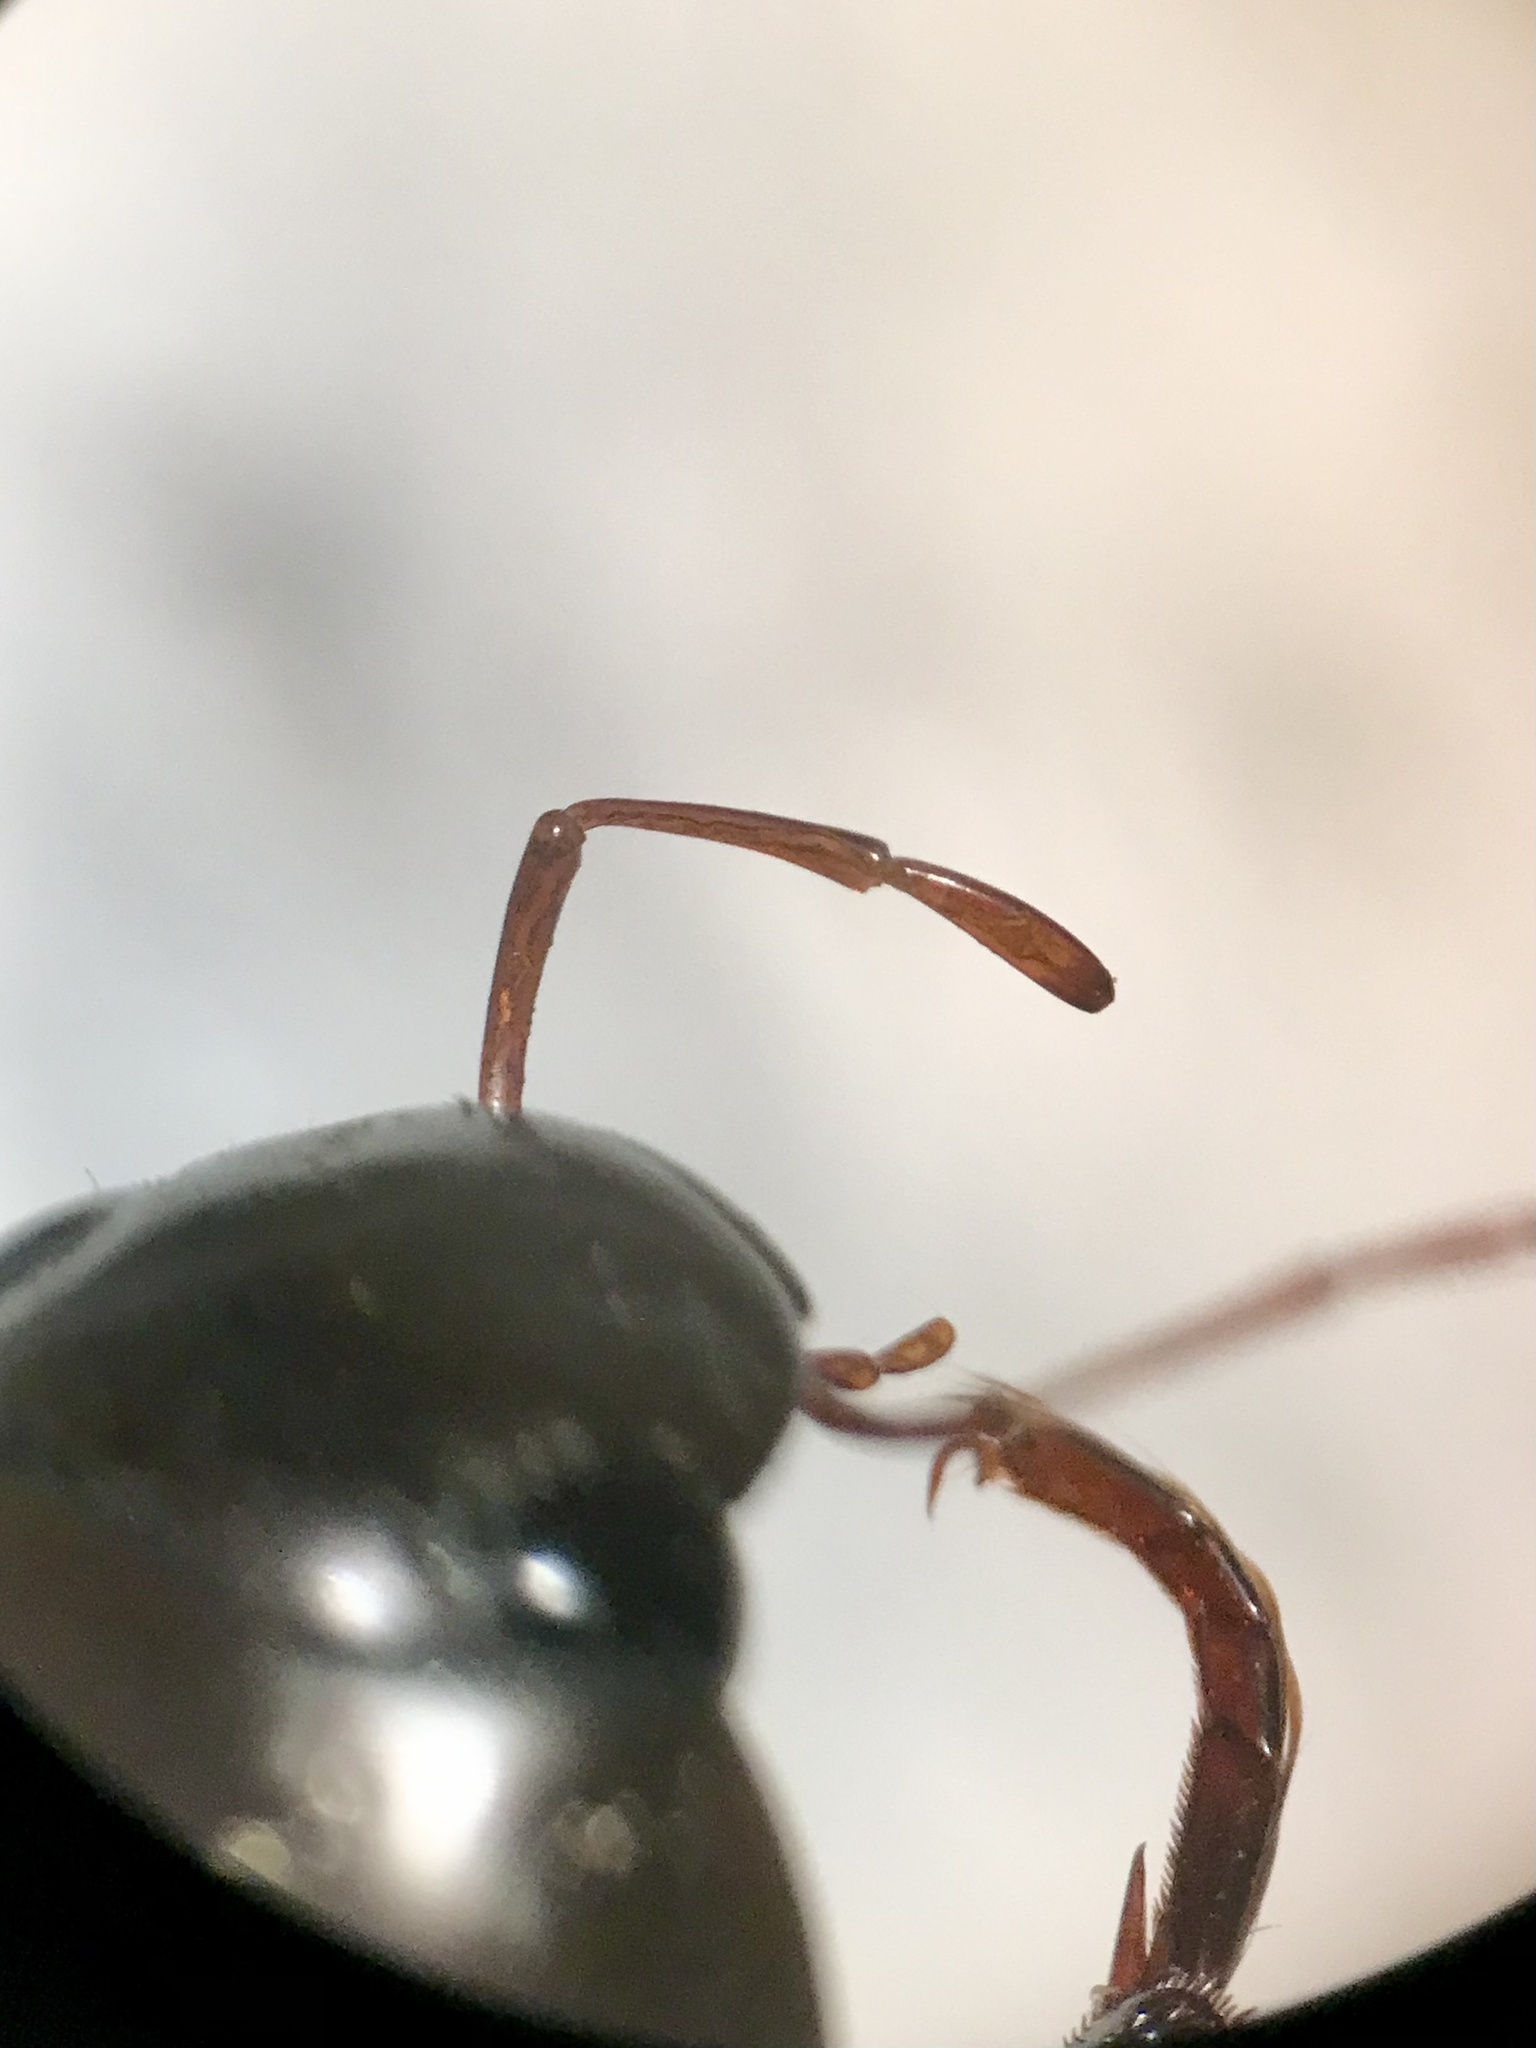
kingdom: Animalia
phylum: Arthropoda
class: Insecta
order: Coleoptera
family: Hydrophilidae
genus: Hydrochara
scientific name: Hydrochara obtusata
